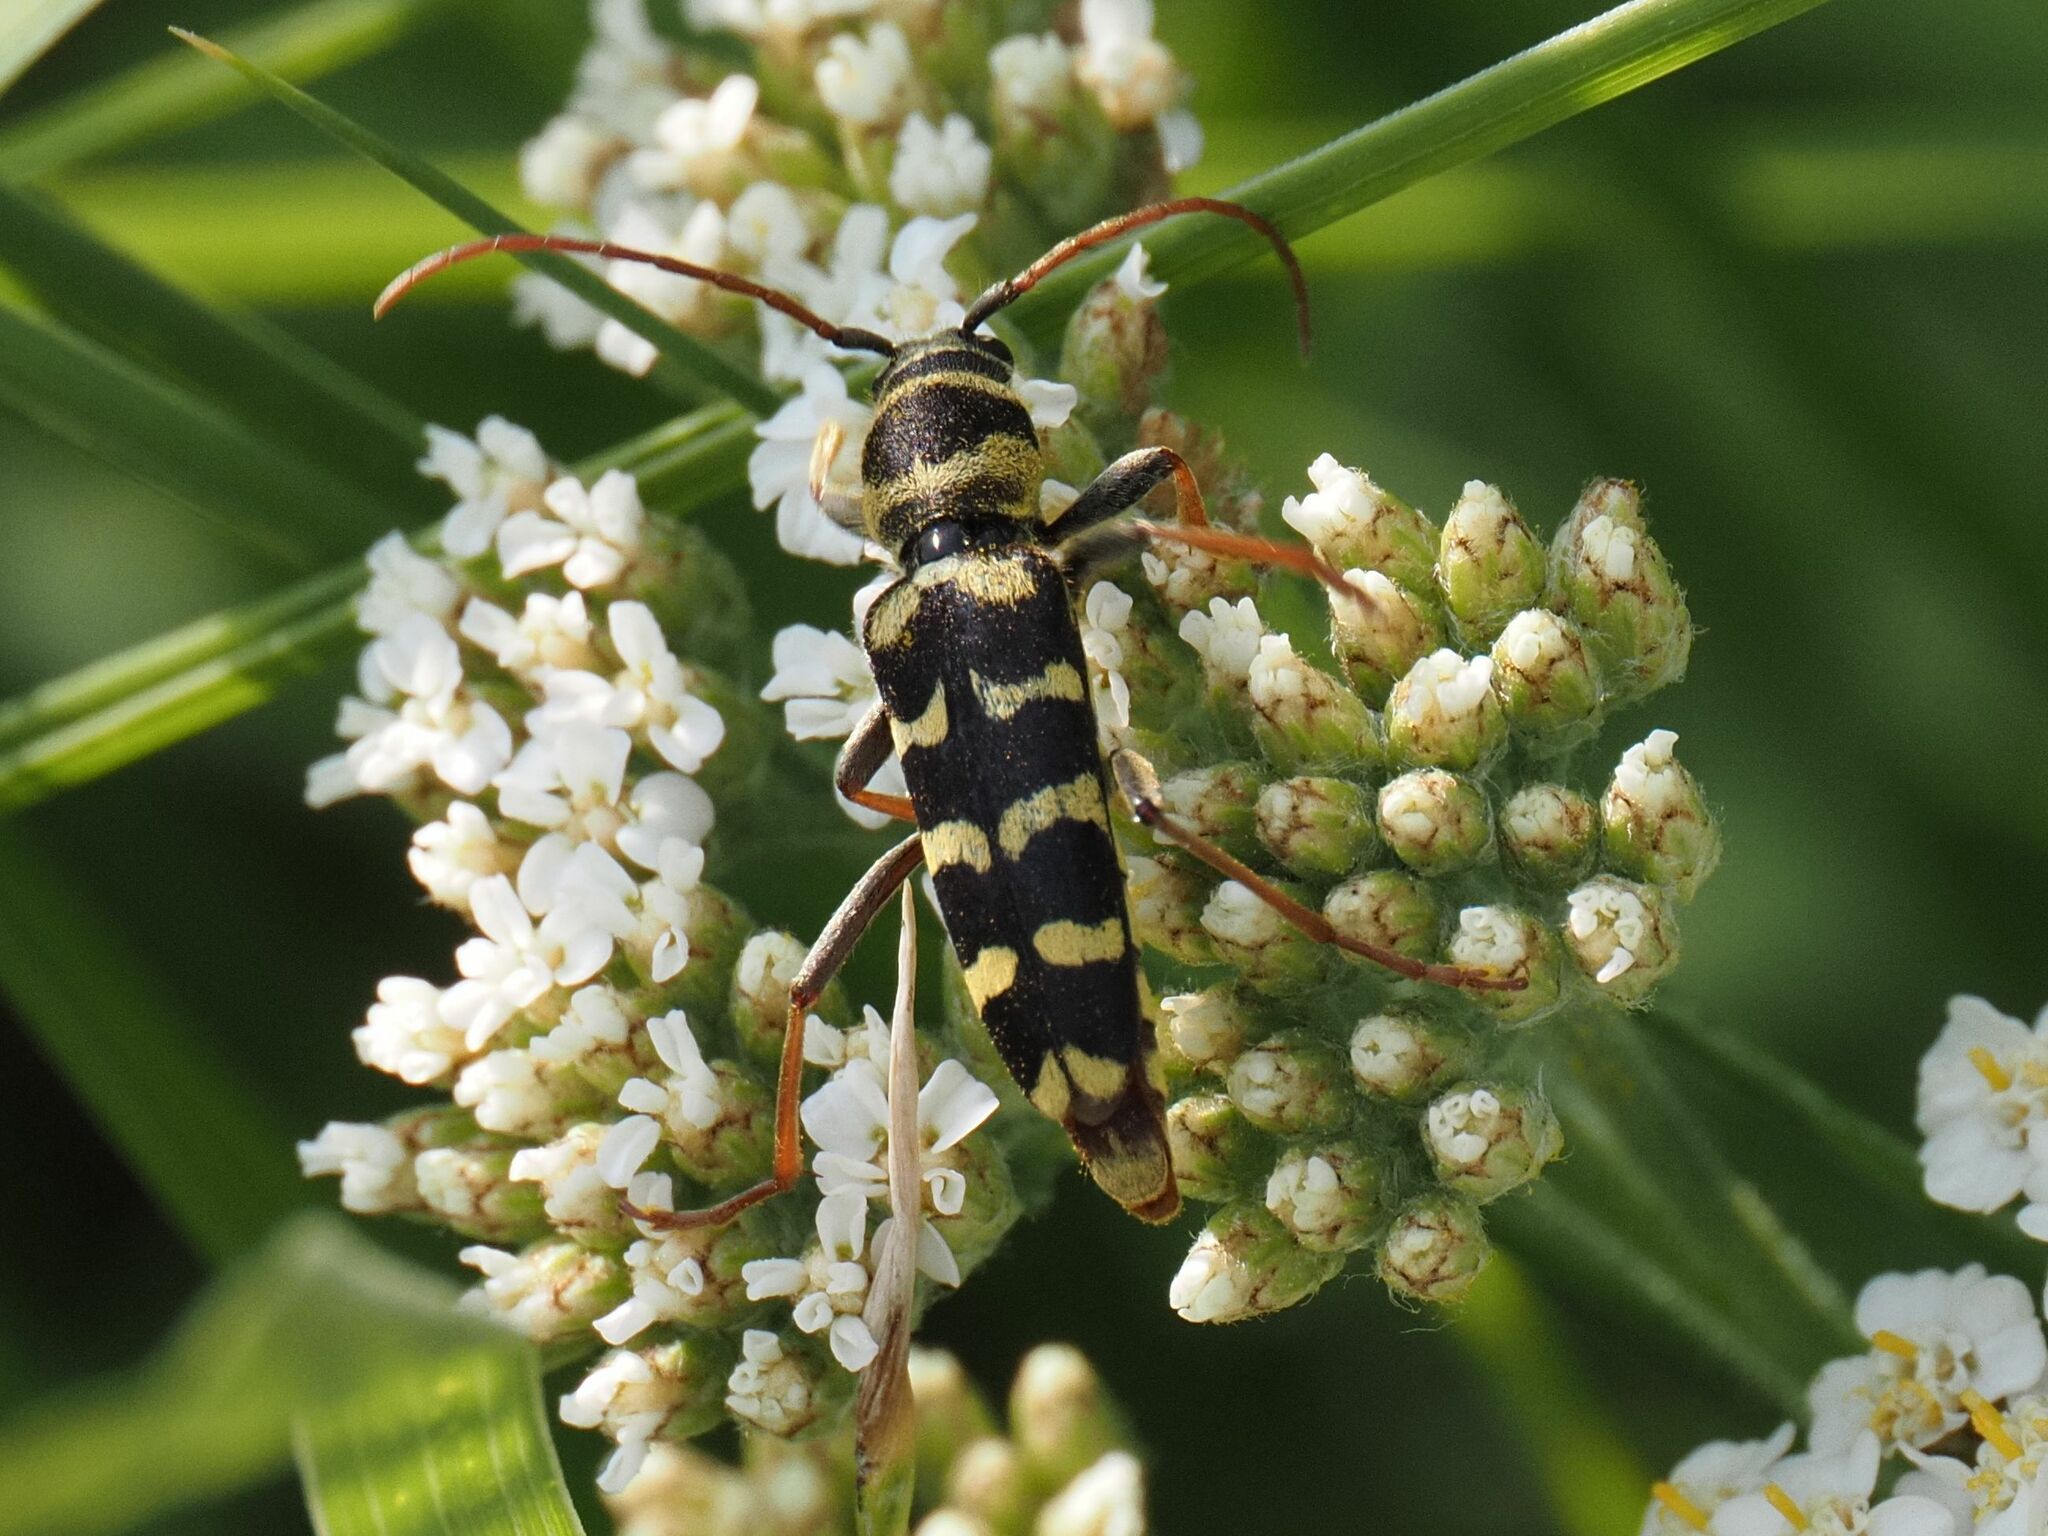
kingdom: Animalia
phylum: Arthropoda
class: Insecta
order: Coleoptera
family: Cerambycidae
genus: Plagionotus
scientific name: Plagionotus floralis
